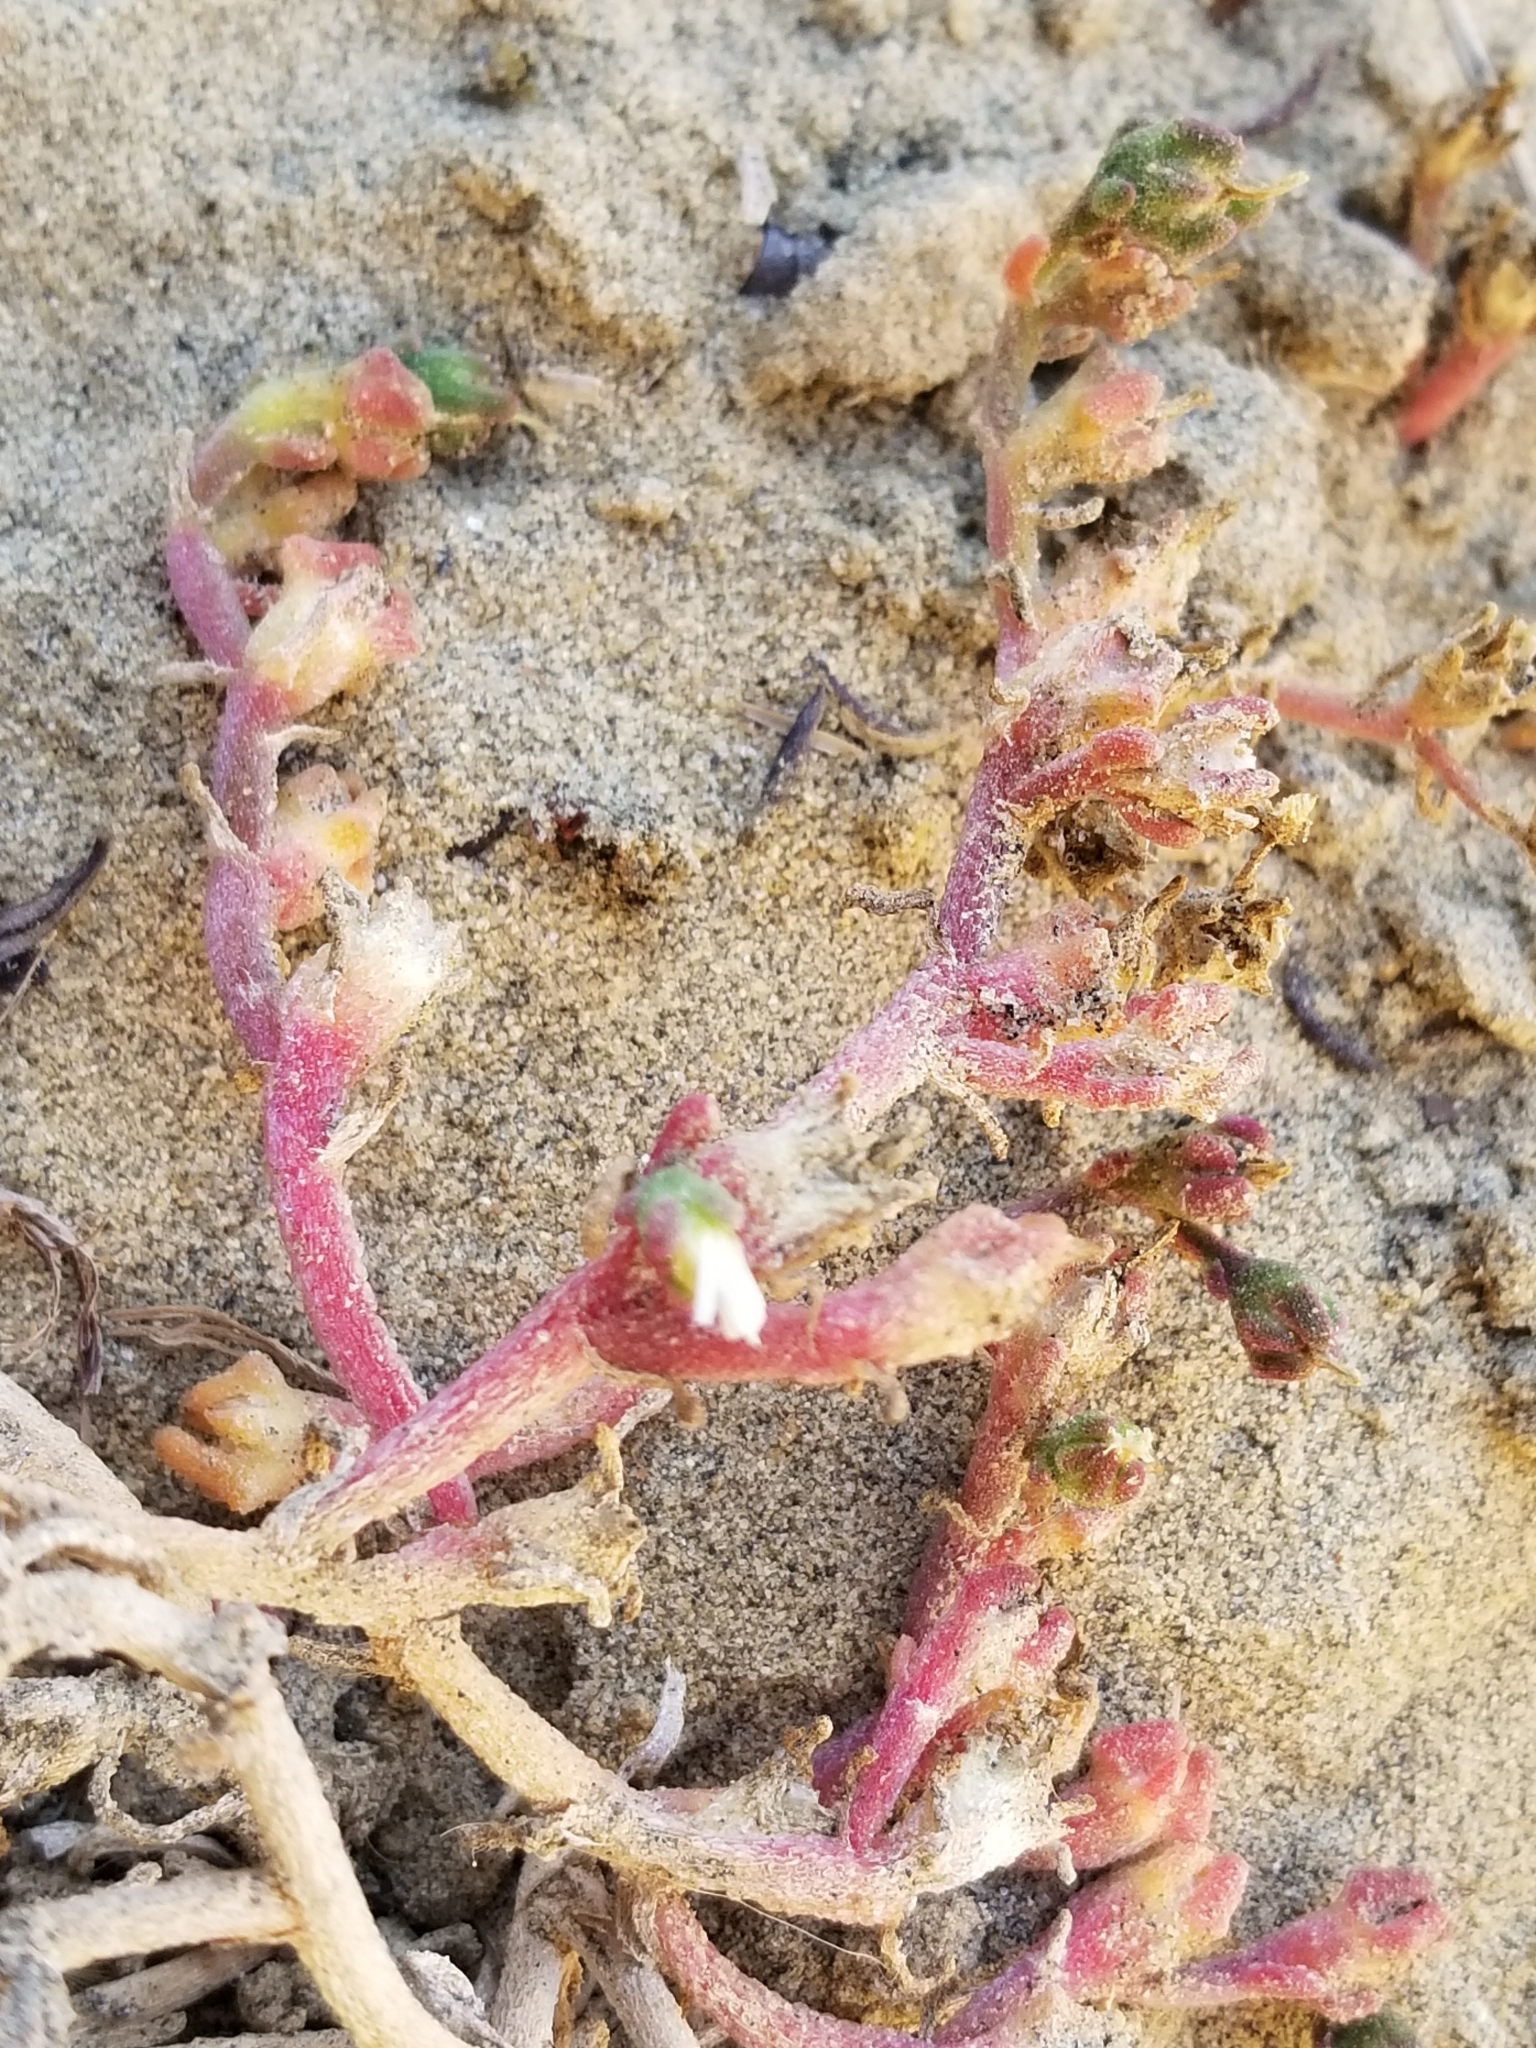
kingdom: Plantae
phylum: Tracheophyta
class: Magnoliopsida
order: Caryophyllales
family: Aizoaceae
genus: Mesembryanthemum
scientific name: Mesembryanthemum nodiflorum
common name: Slenderleaf iceplant
